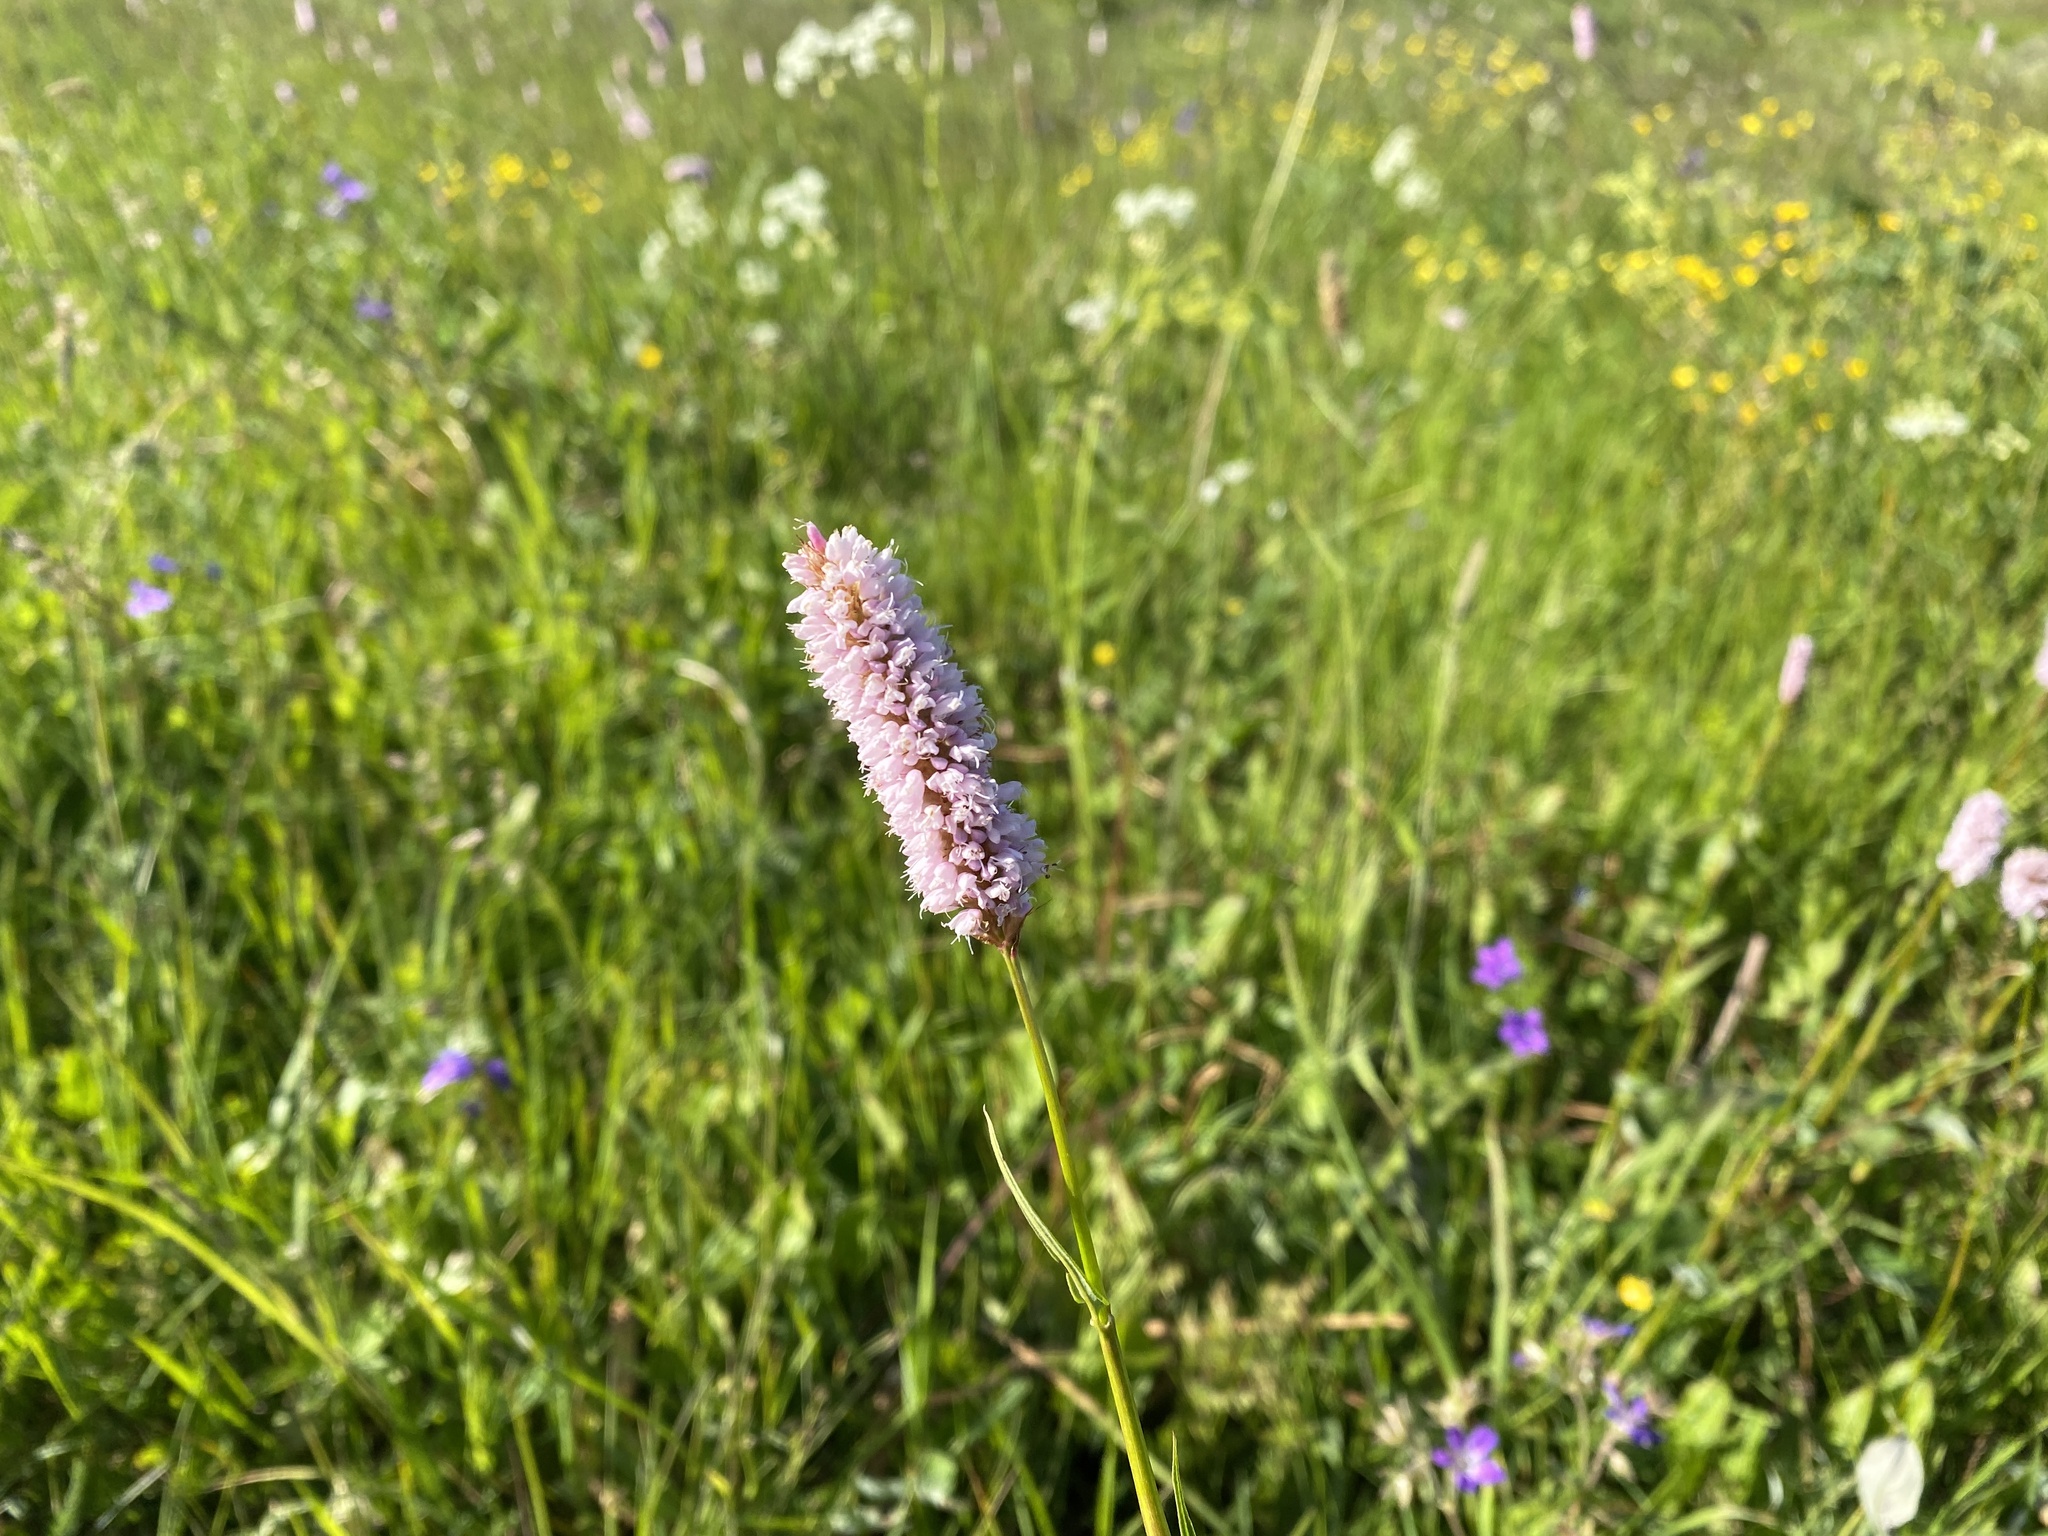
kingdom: Plantae
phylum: Tracheophyta
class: Magnoliopsida
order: Caryophyllales
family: Polygonaceae
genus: Bistorta
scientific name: Bistorta officinalis
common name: Common bistort
